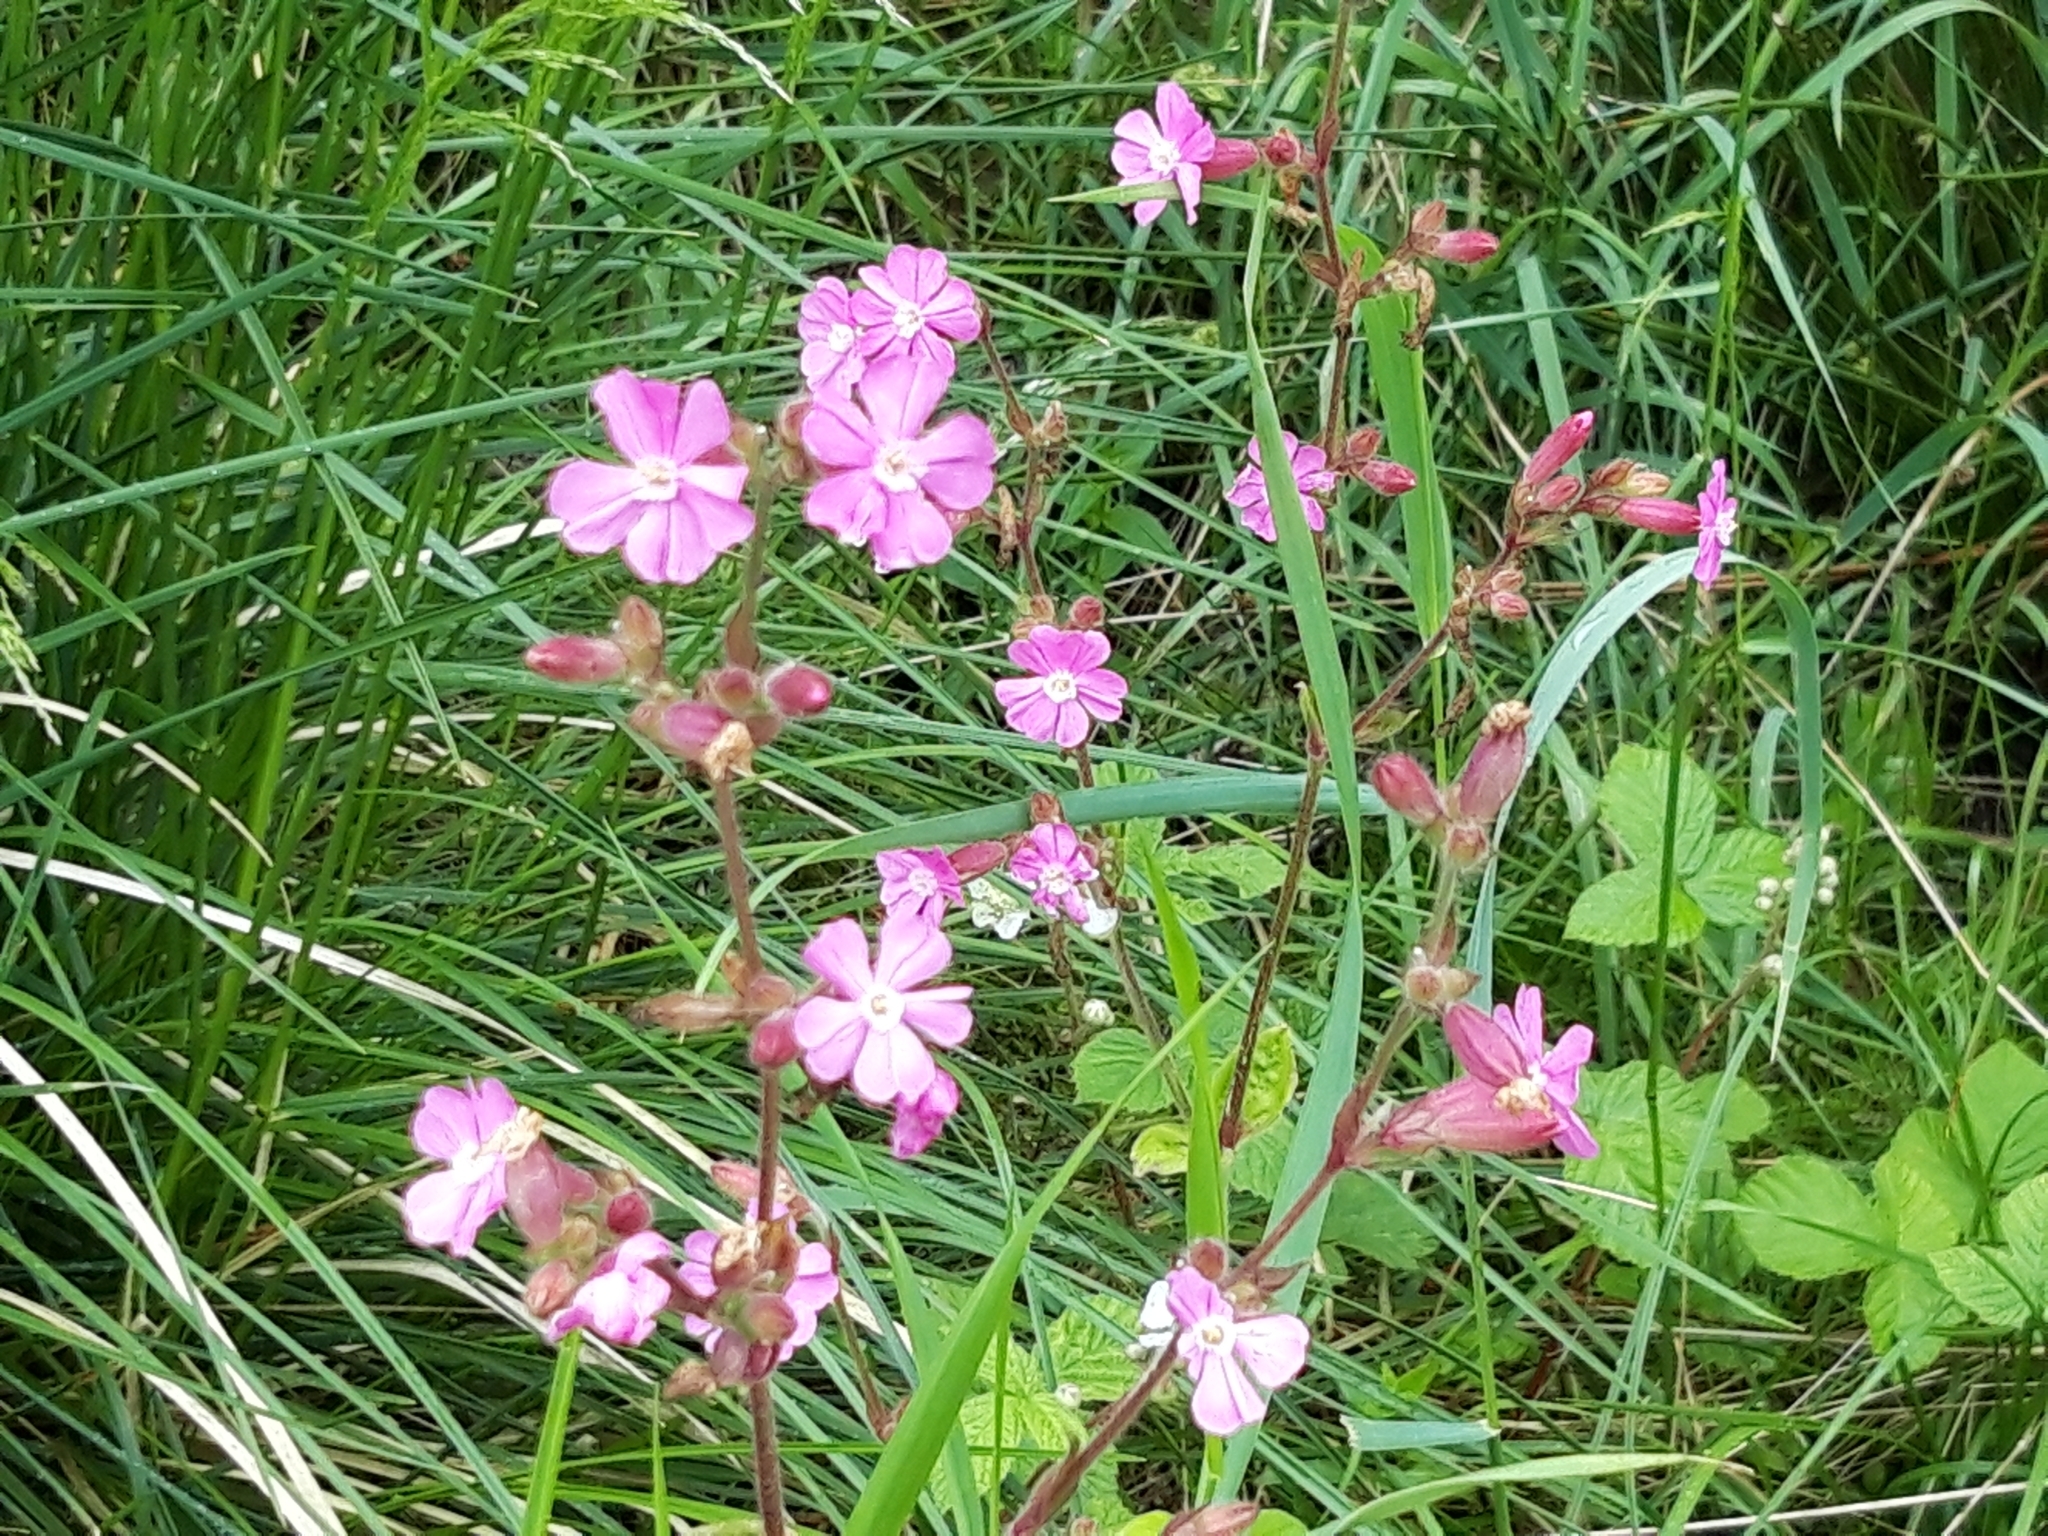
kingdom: Plantae
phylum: Tracheophyta
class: Magnoliopsida
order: Caryophyllales
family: Caryophyllaceae
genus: Silene
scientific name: Silene dioica
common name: Red campion
